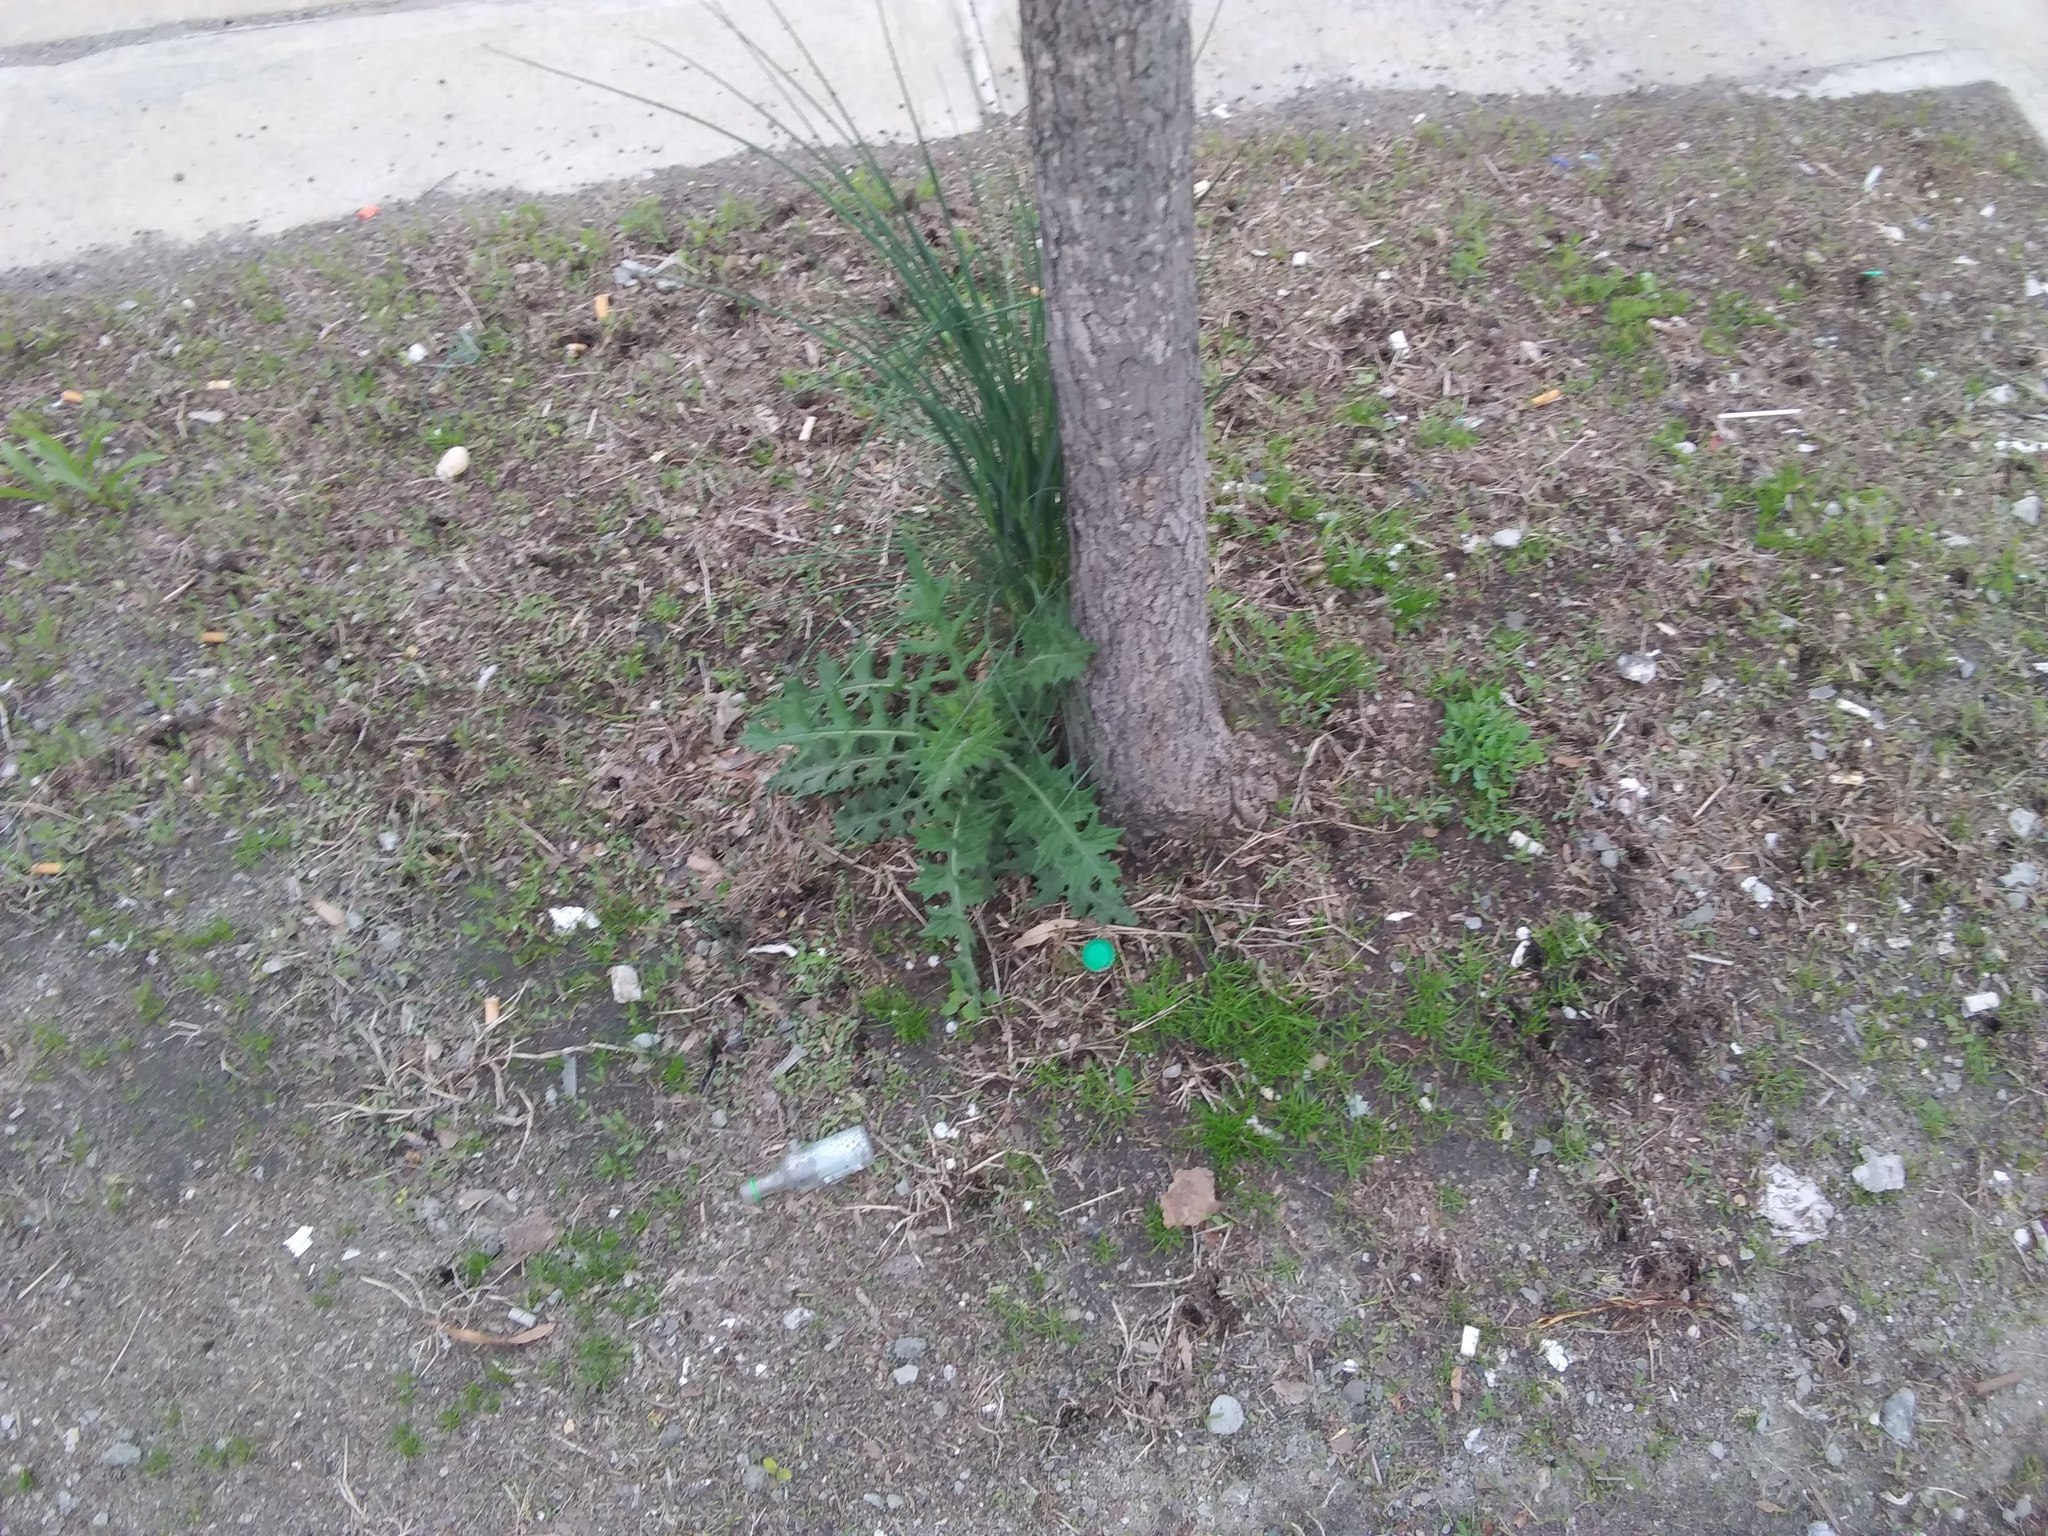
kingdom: Plantae
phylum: Tracheophyta
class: Magnoliopsida
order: Asterales
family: Asteraceae
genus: Cirsium
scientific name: Cirsium vulgare
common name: Bull thistle
